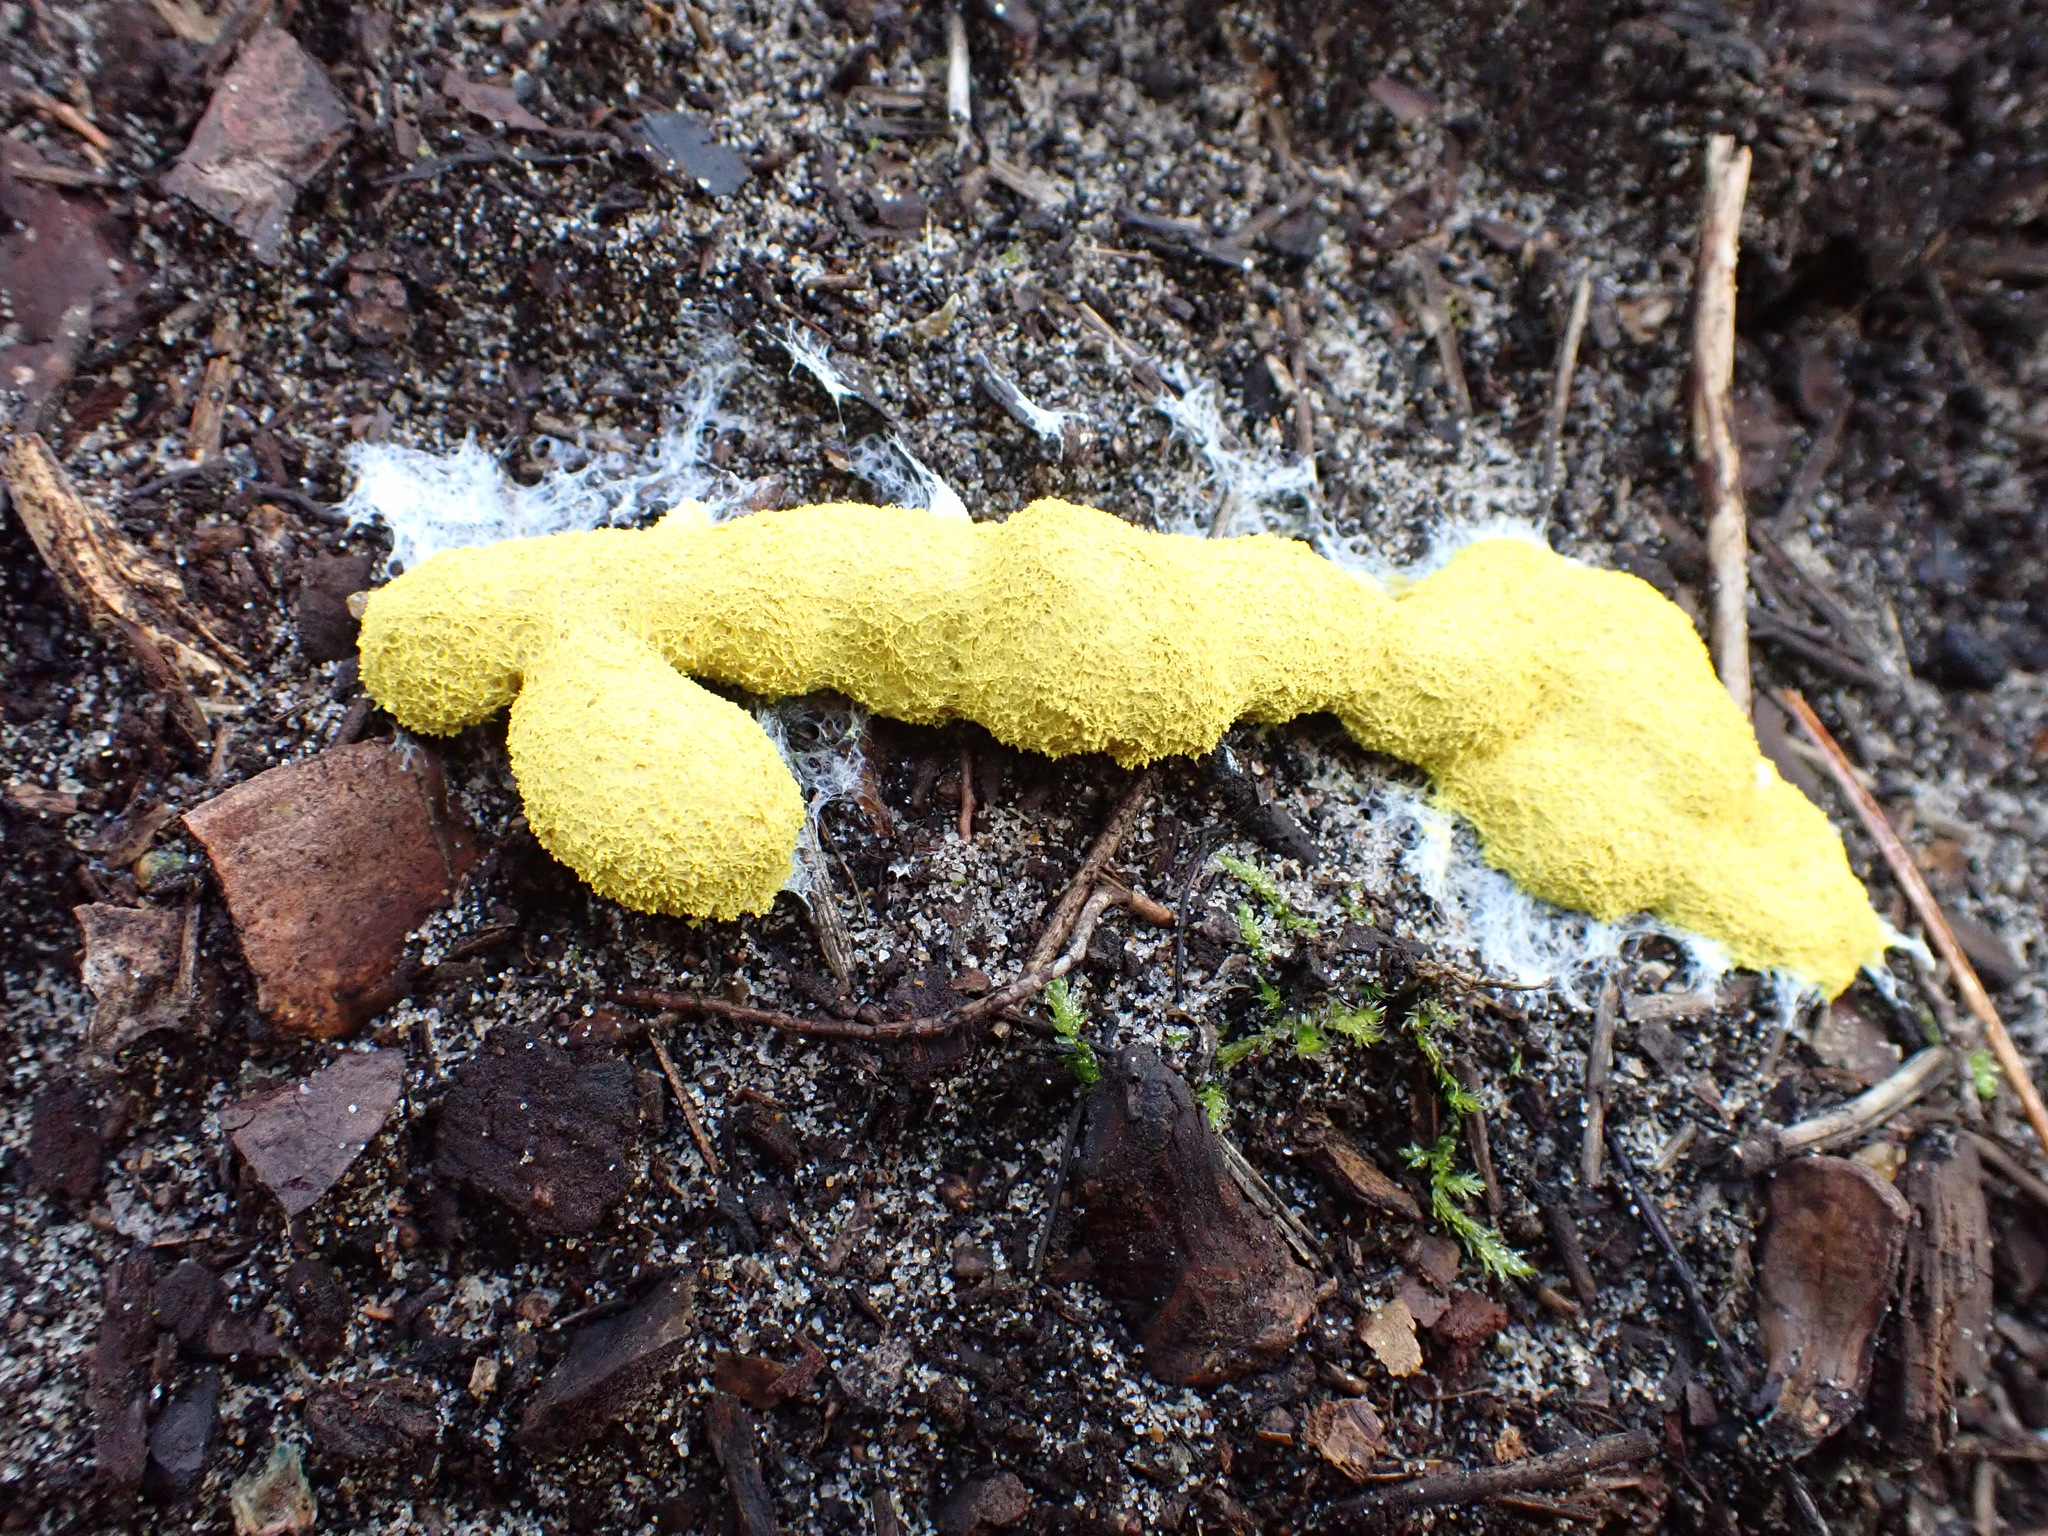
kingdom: Protozoa
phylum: Mycetozoa
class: Myxomycetes
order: Physarales
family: Physaraceae
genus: Fuligo
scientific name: Fuligo septica
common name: Dog vomit slime mold
